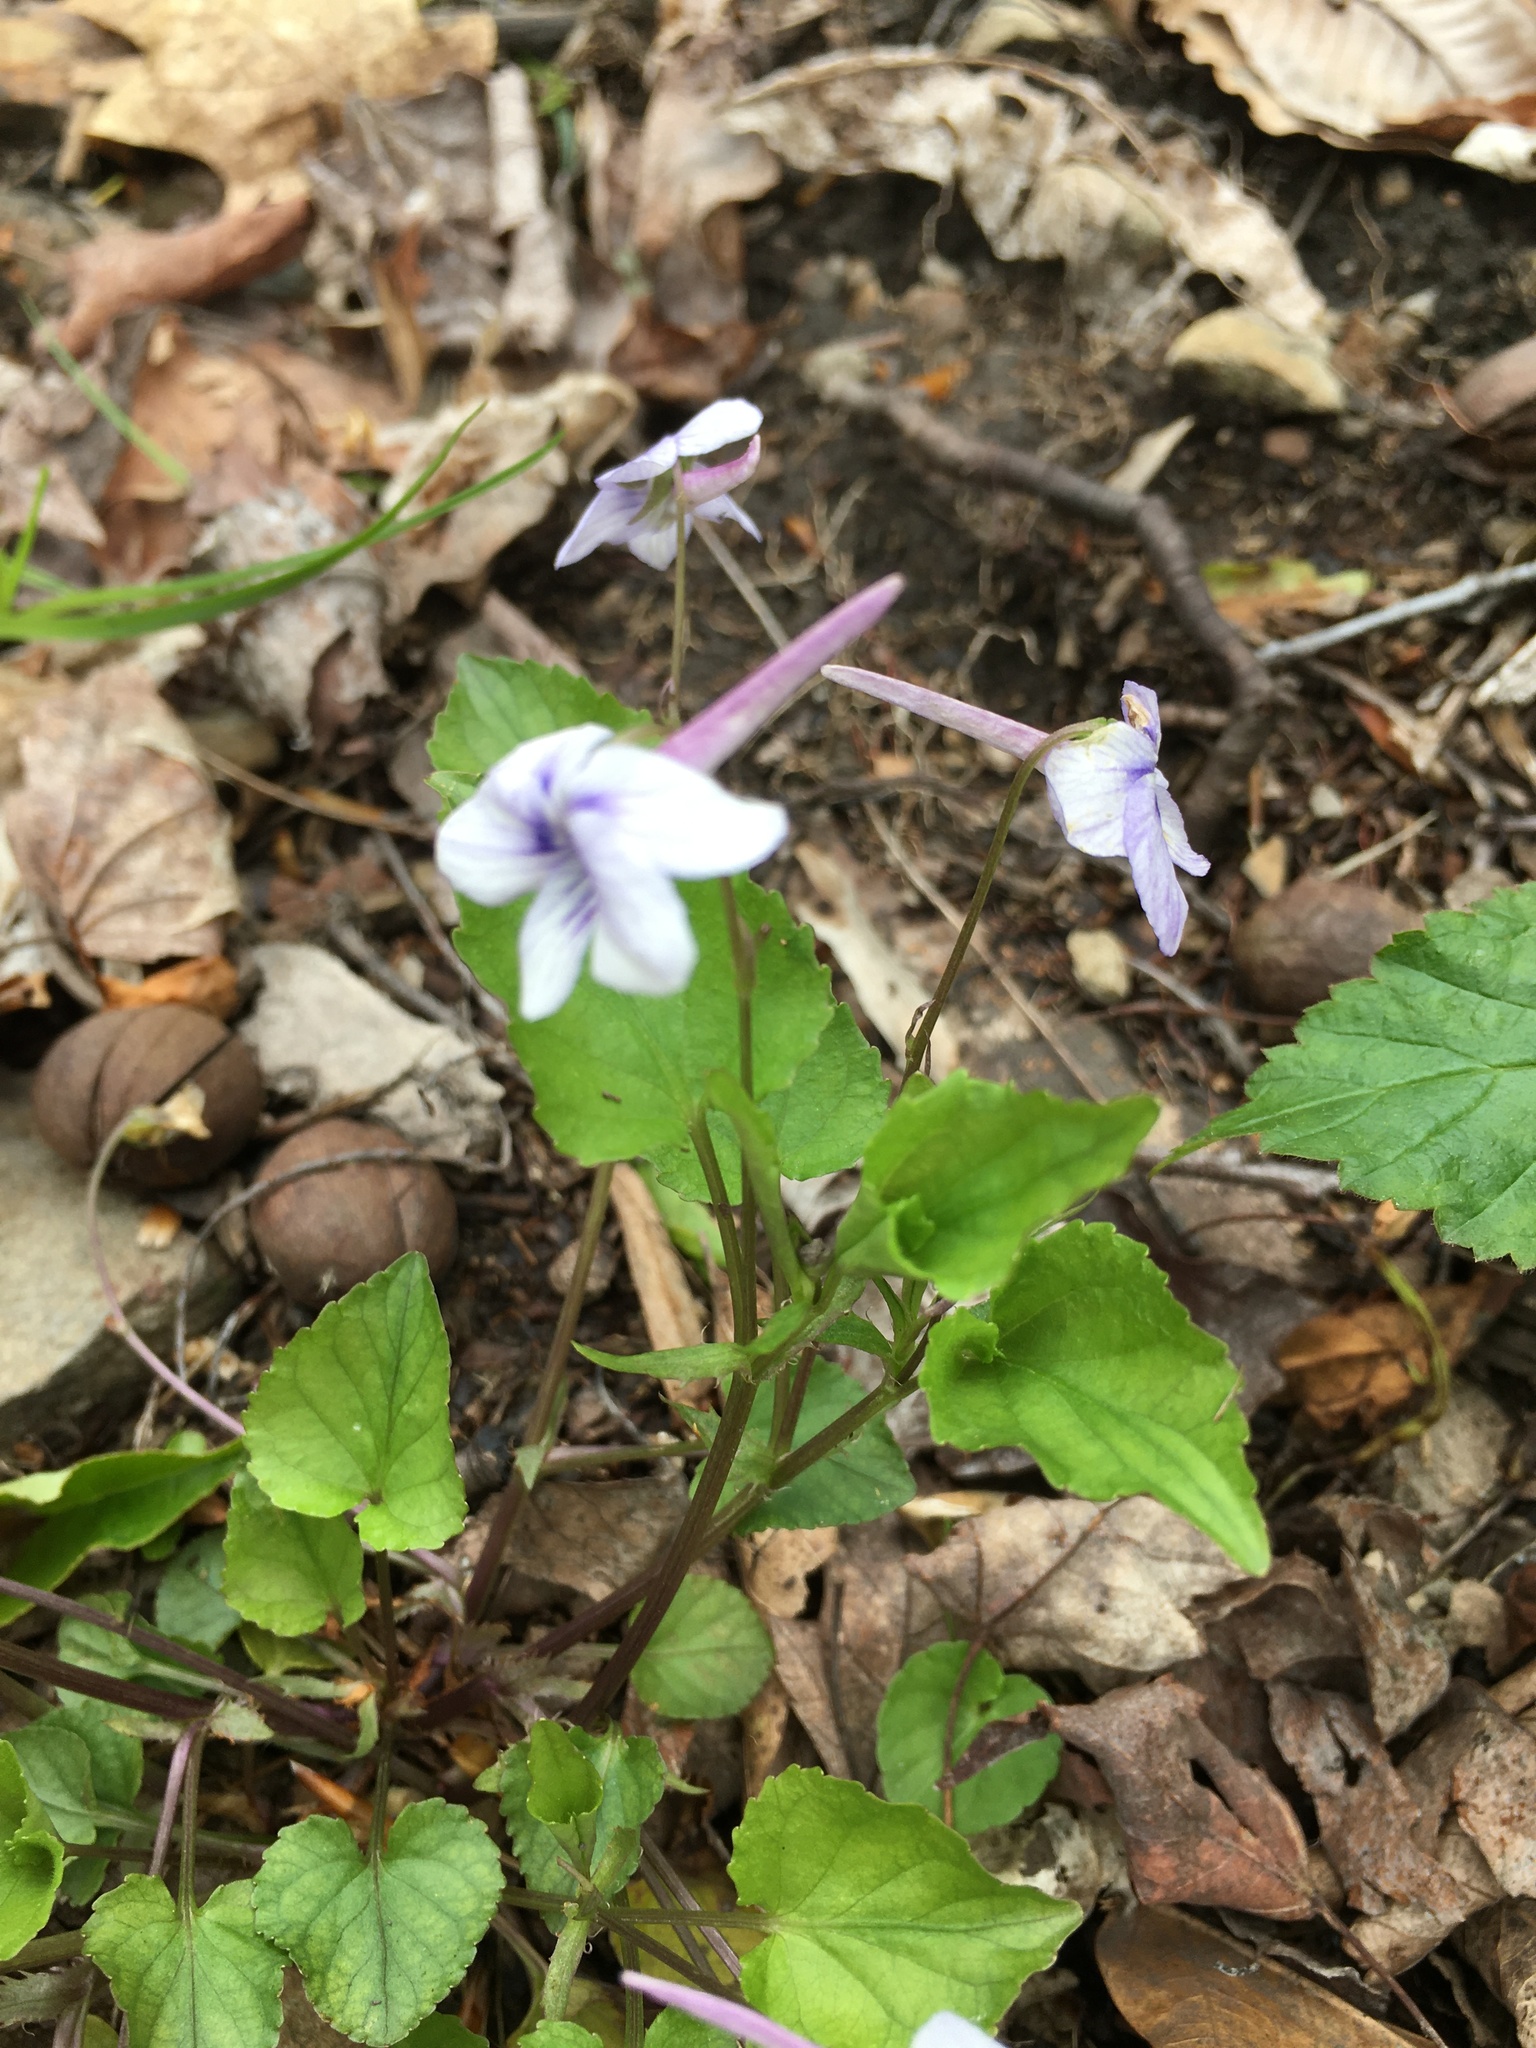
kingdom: Plantae
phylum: Tracheophyta
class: Magnoliopsida
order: Malpighiales
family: Violaceae
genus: Viola
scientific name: Viola rostrata
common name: Long-spur violet
